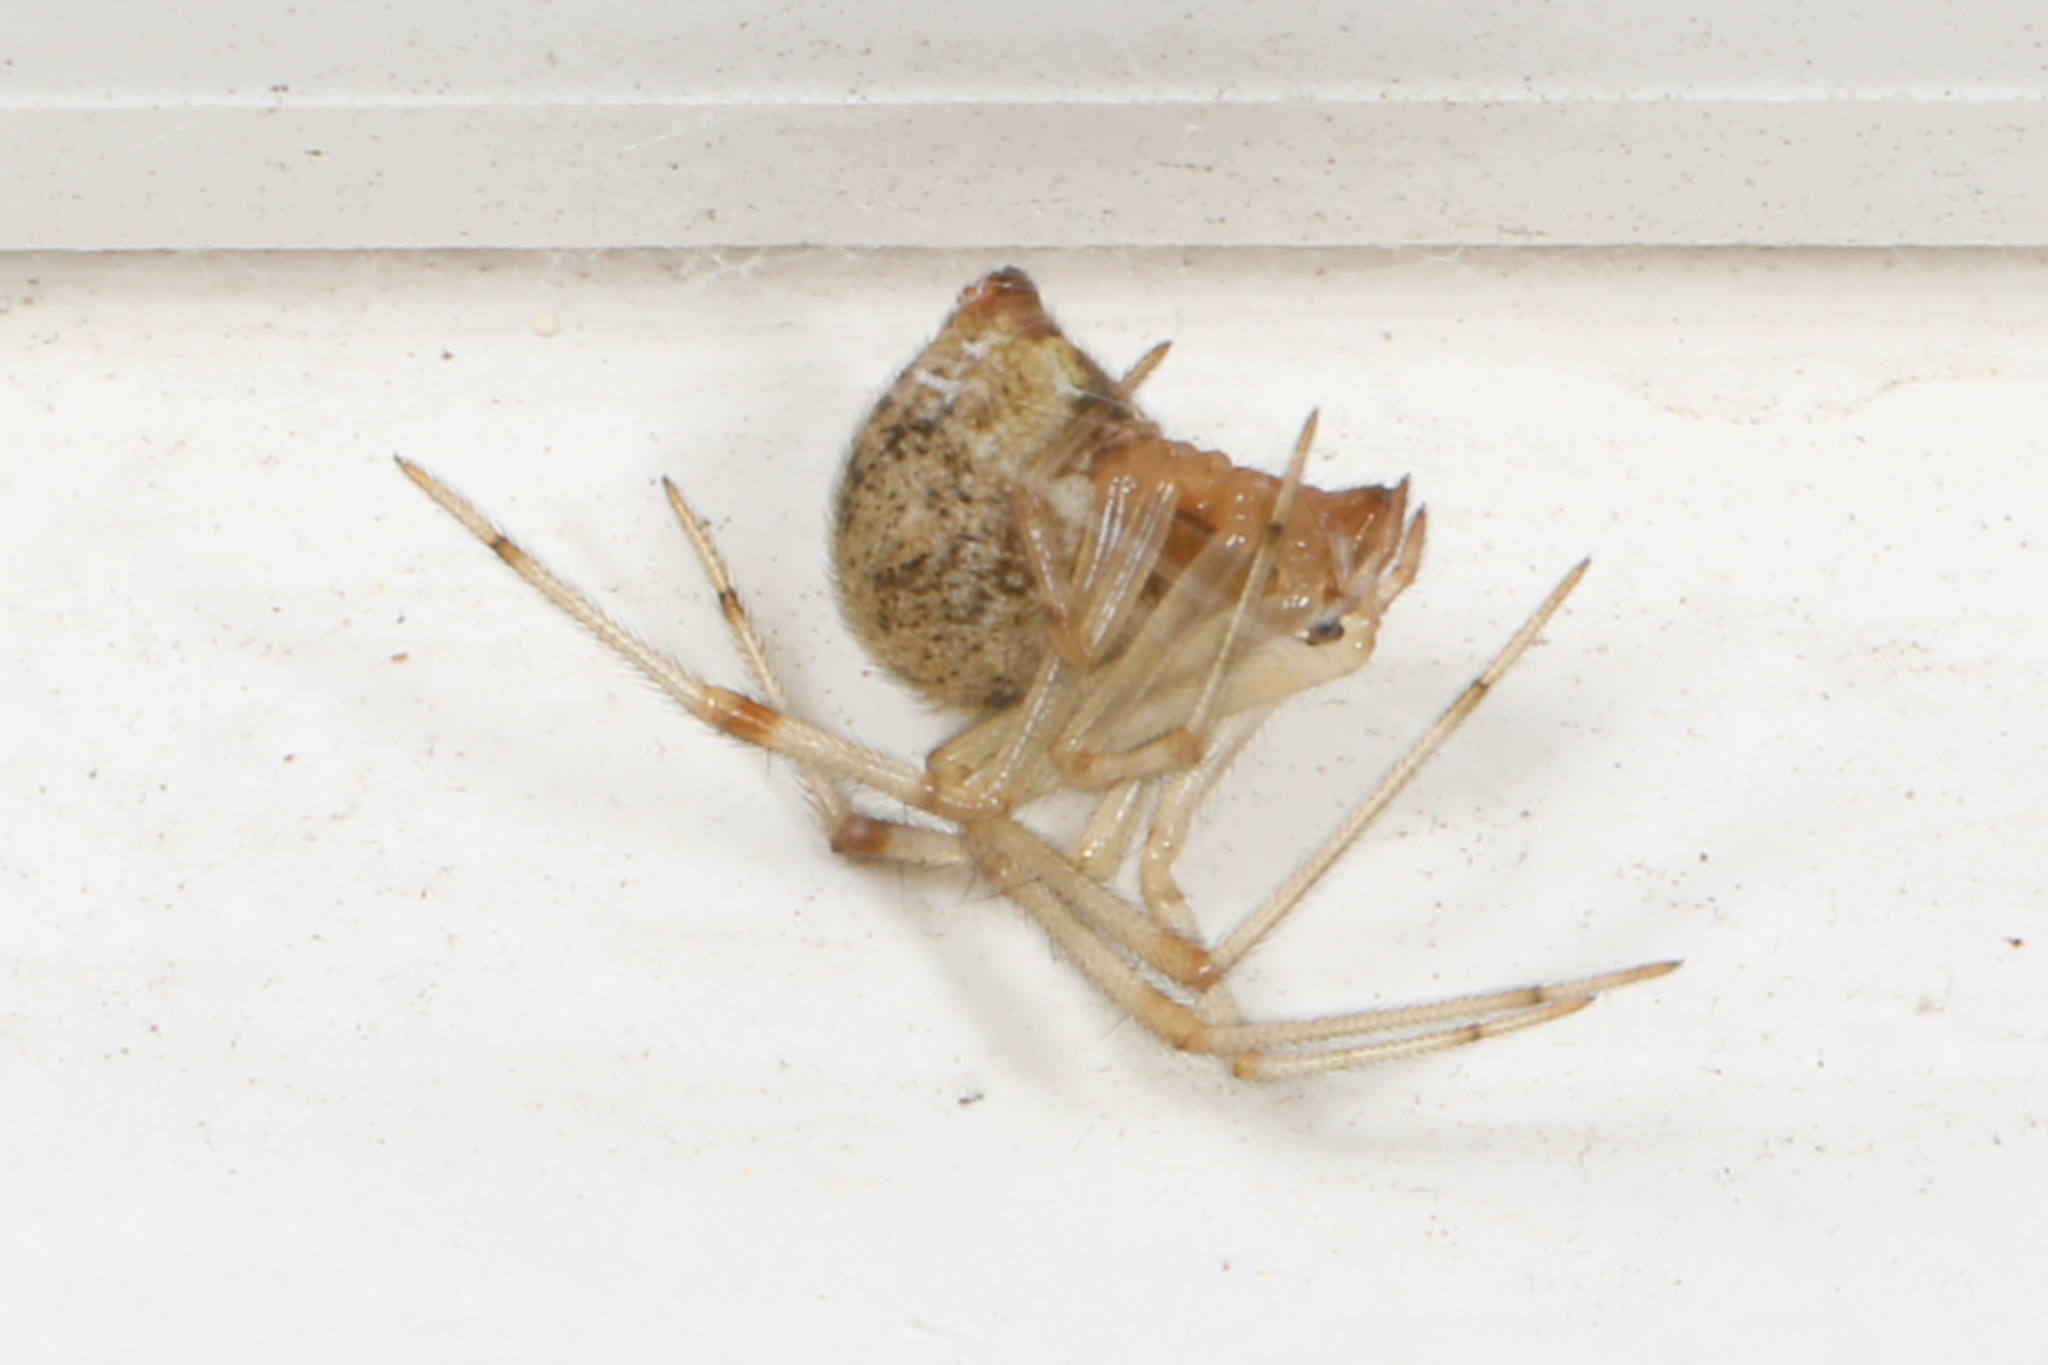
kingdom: Animalia
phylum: Arthropoda
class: Arachnida
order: Araneae
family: Theridiidae
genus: Parasteatoda
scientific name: Parasteatoda tepidariorum
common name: Common house spider
